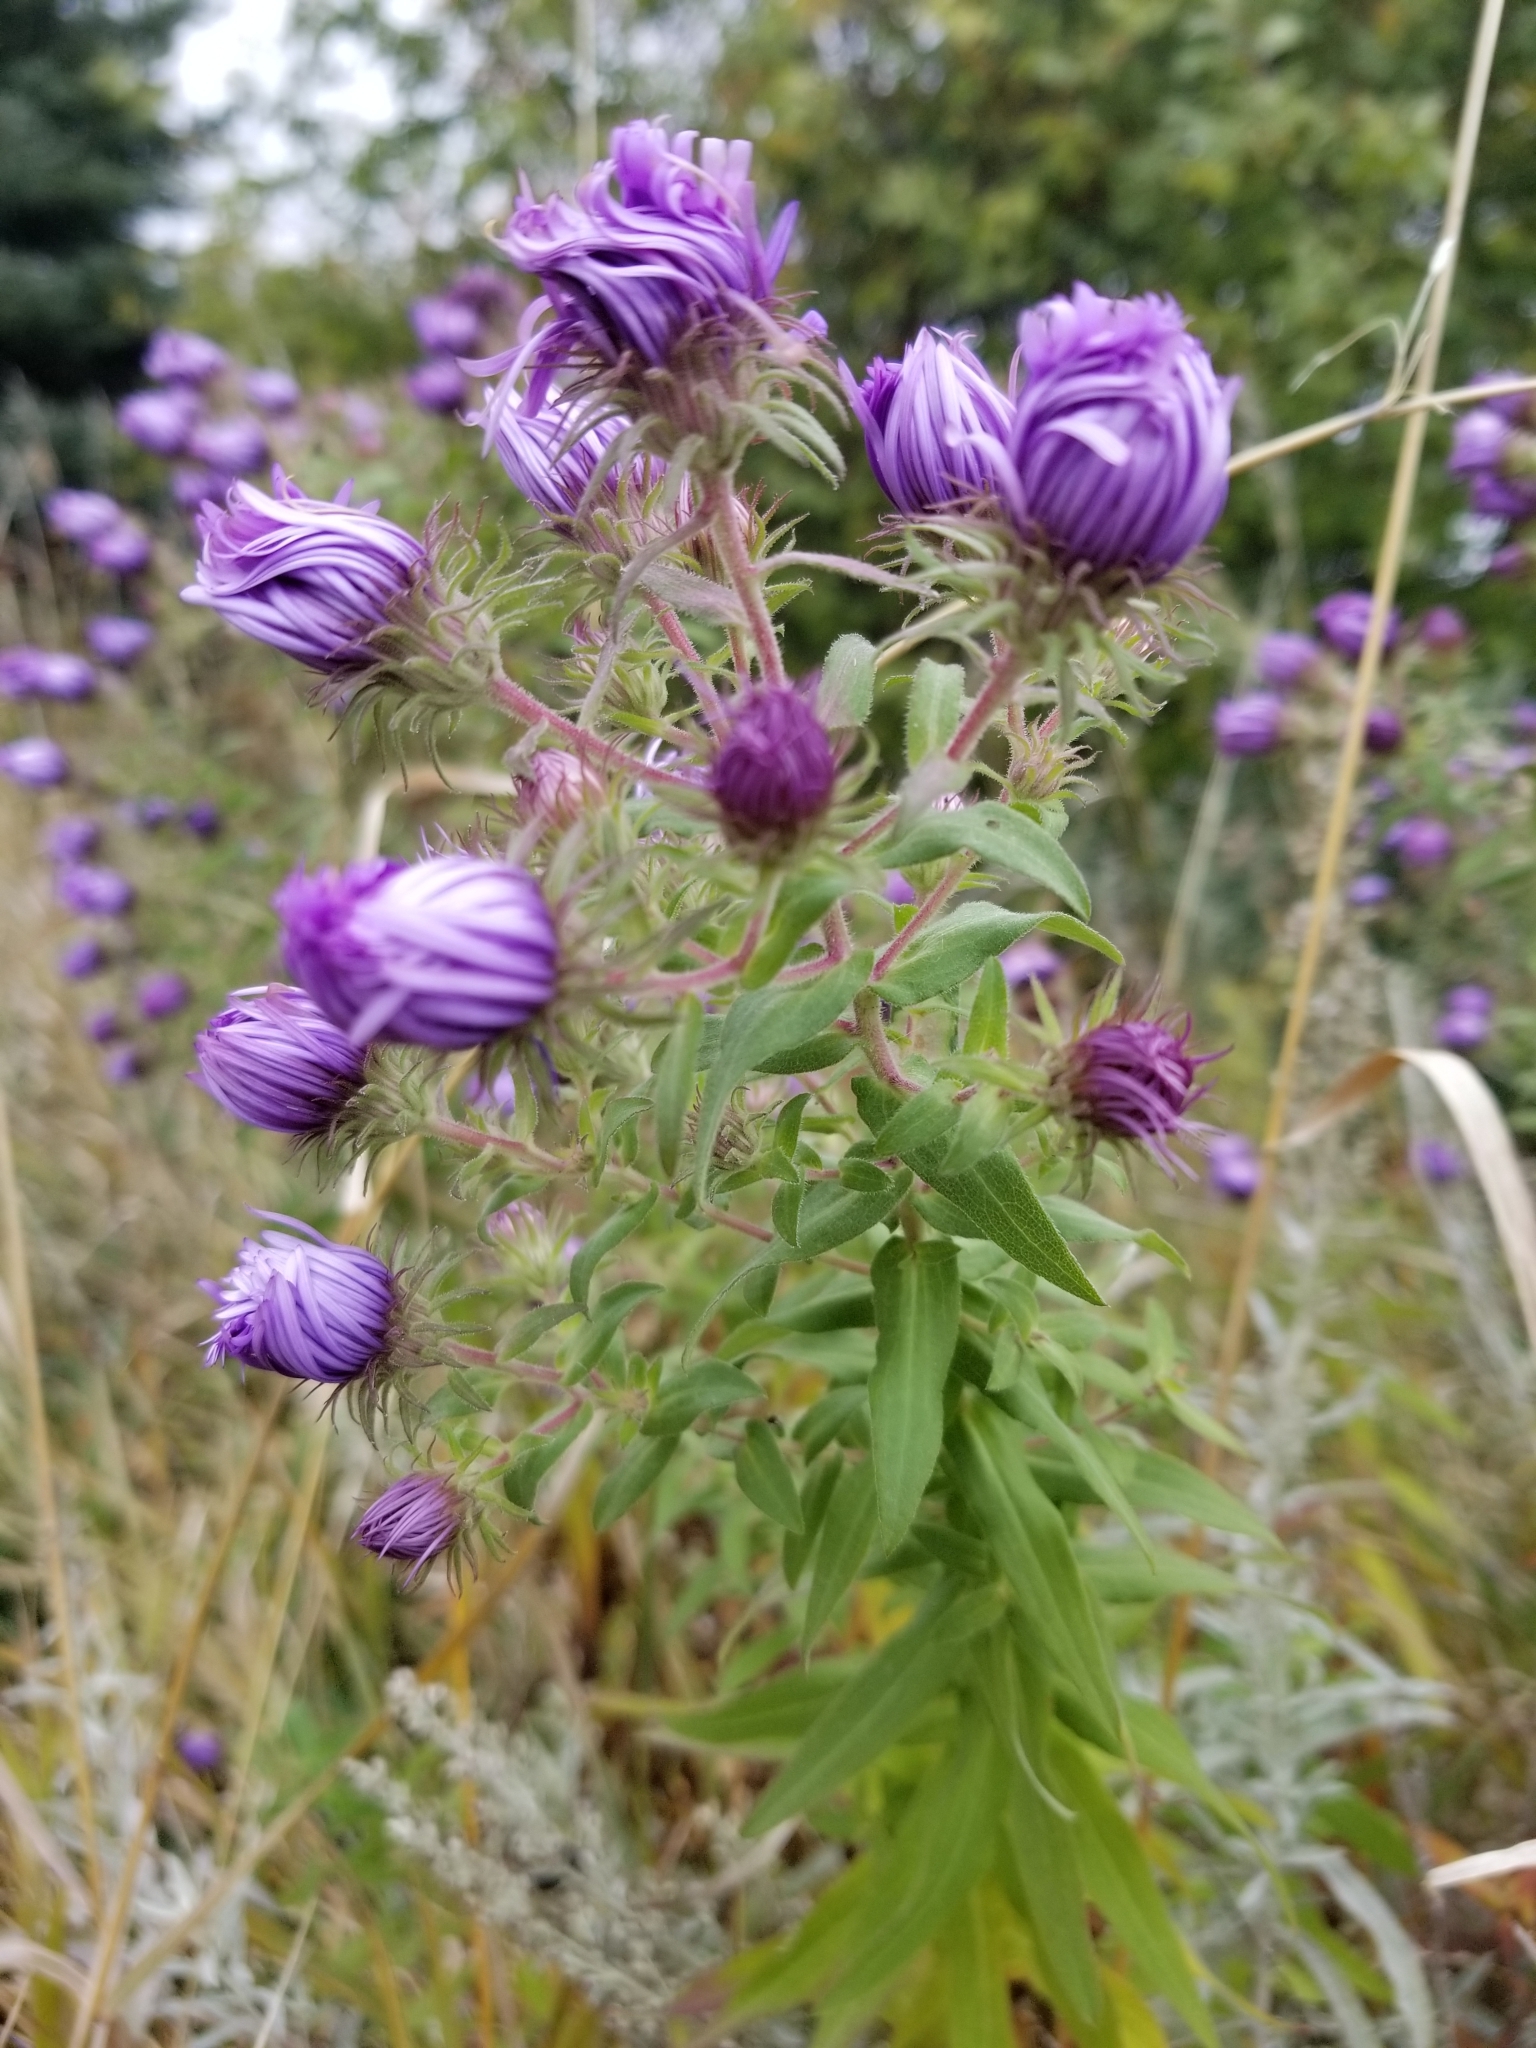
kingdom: Plantae
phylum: Tracheophyta
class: Magnoliopsida
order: Asterales
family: Asteraceae
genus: Symphyotrichum
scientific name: Symphyotrichum novae-angliae
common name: Michaelmas daisy
